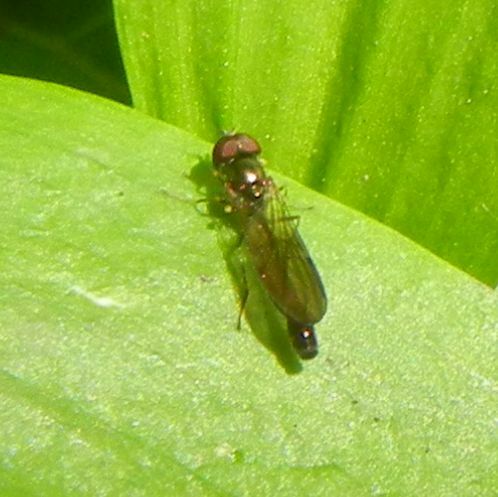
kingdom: Animalia
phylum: Arthropoda
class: Insecta
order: Diptera
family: Syrphidae
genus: Baccha
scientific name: Baccha elongata
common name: Common dainty
